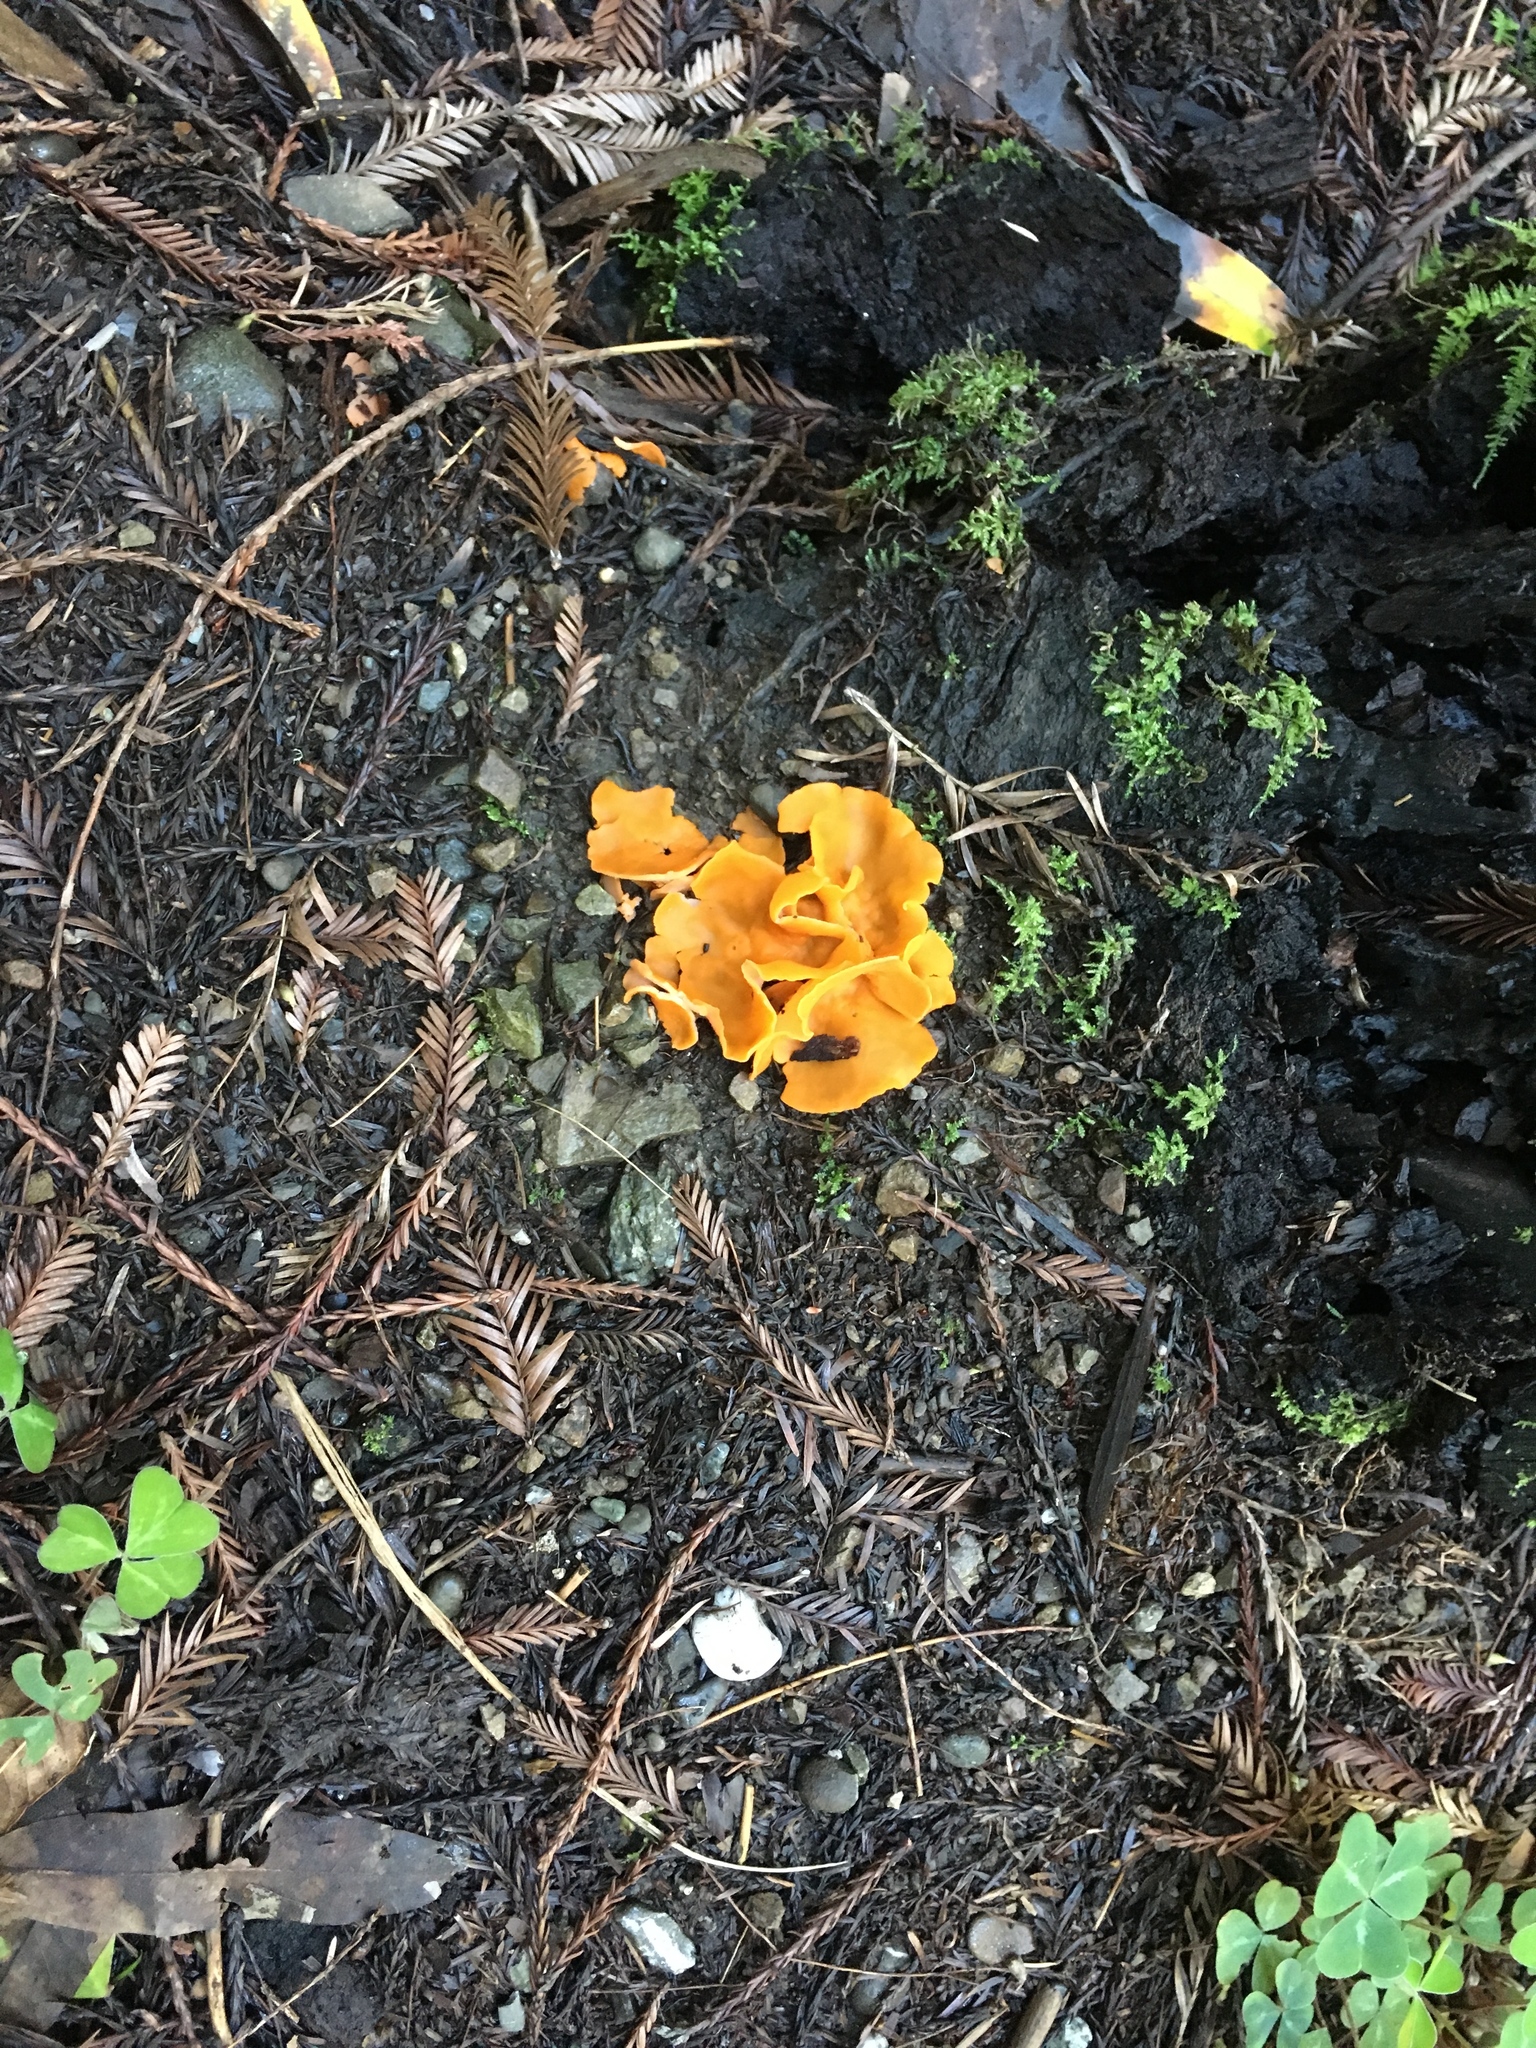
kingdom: Fungi
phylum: Ascomycota
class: Pezizomycetes
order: Pezizales
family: Pyronemataceae
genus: Aleuria
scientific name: Aleuria aurantia
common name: Orange peel fungus
